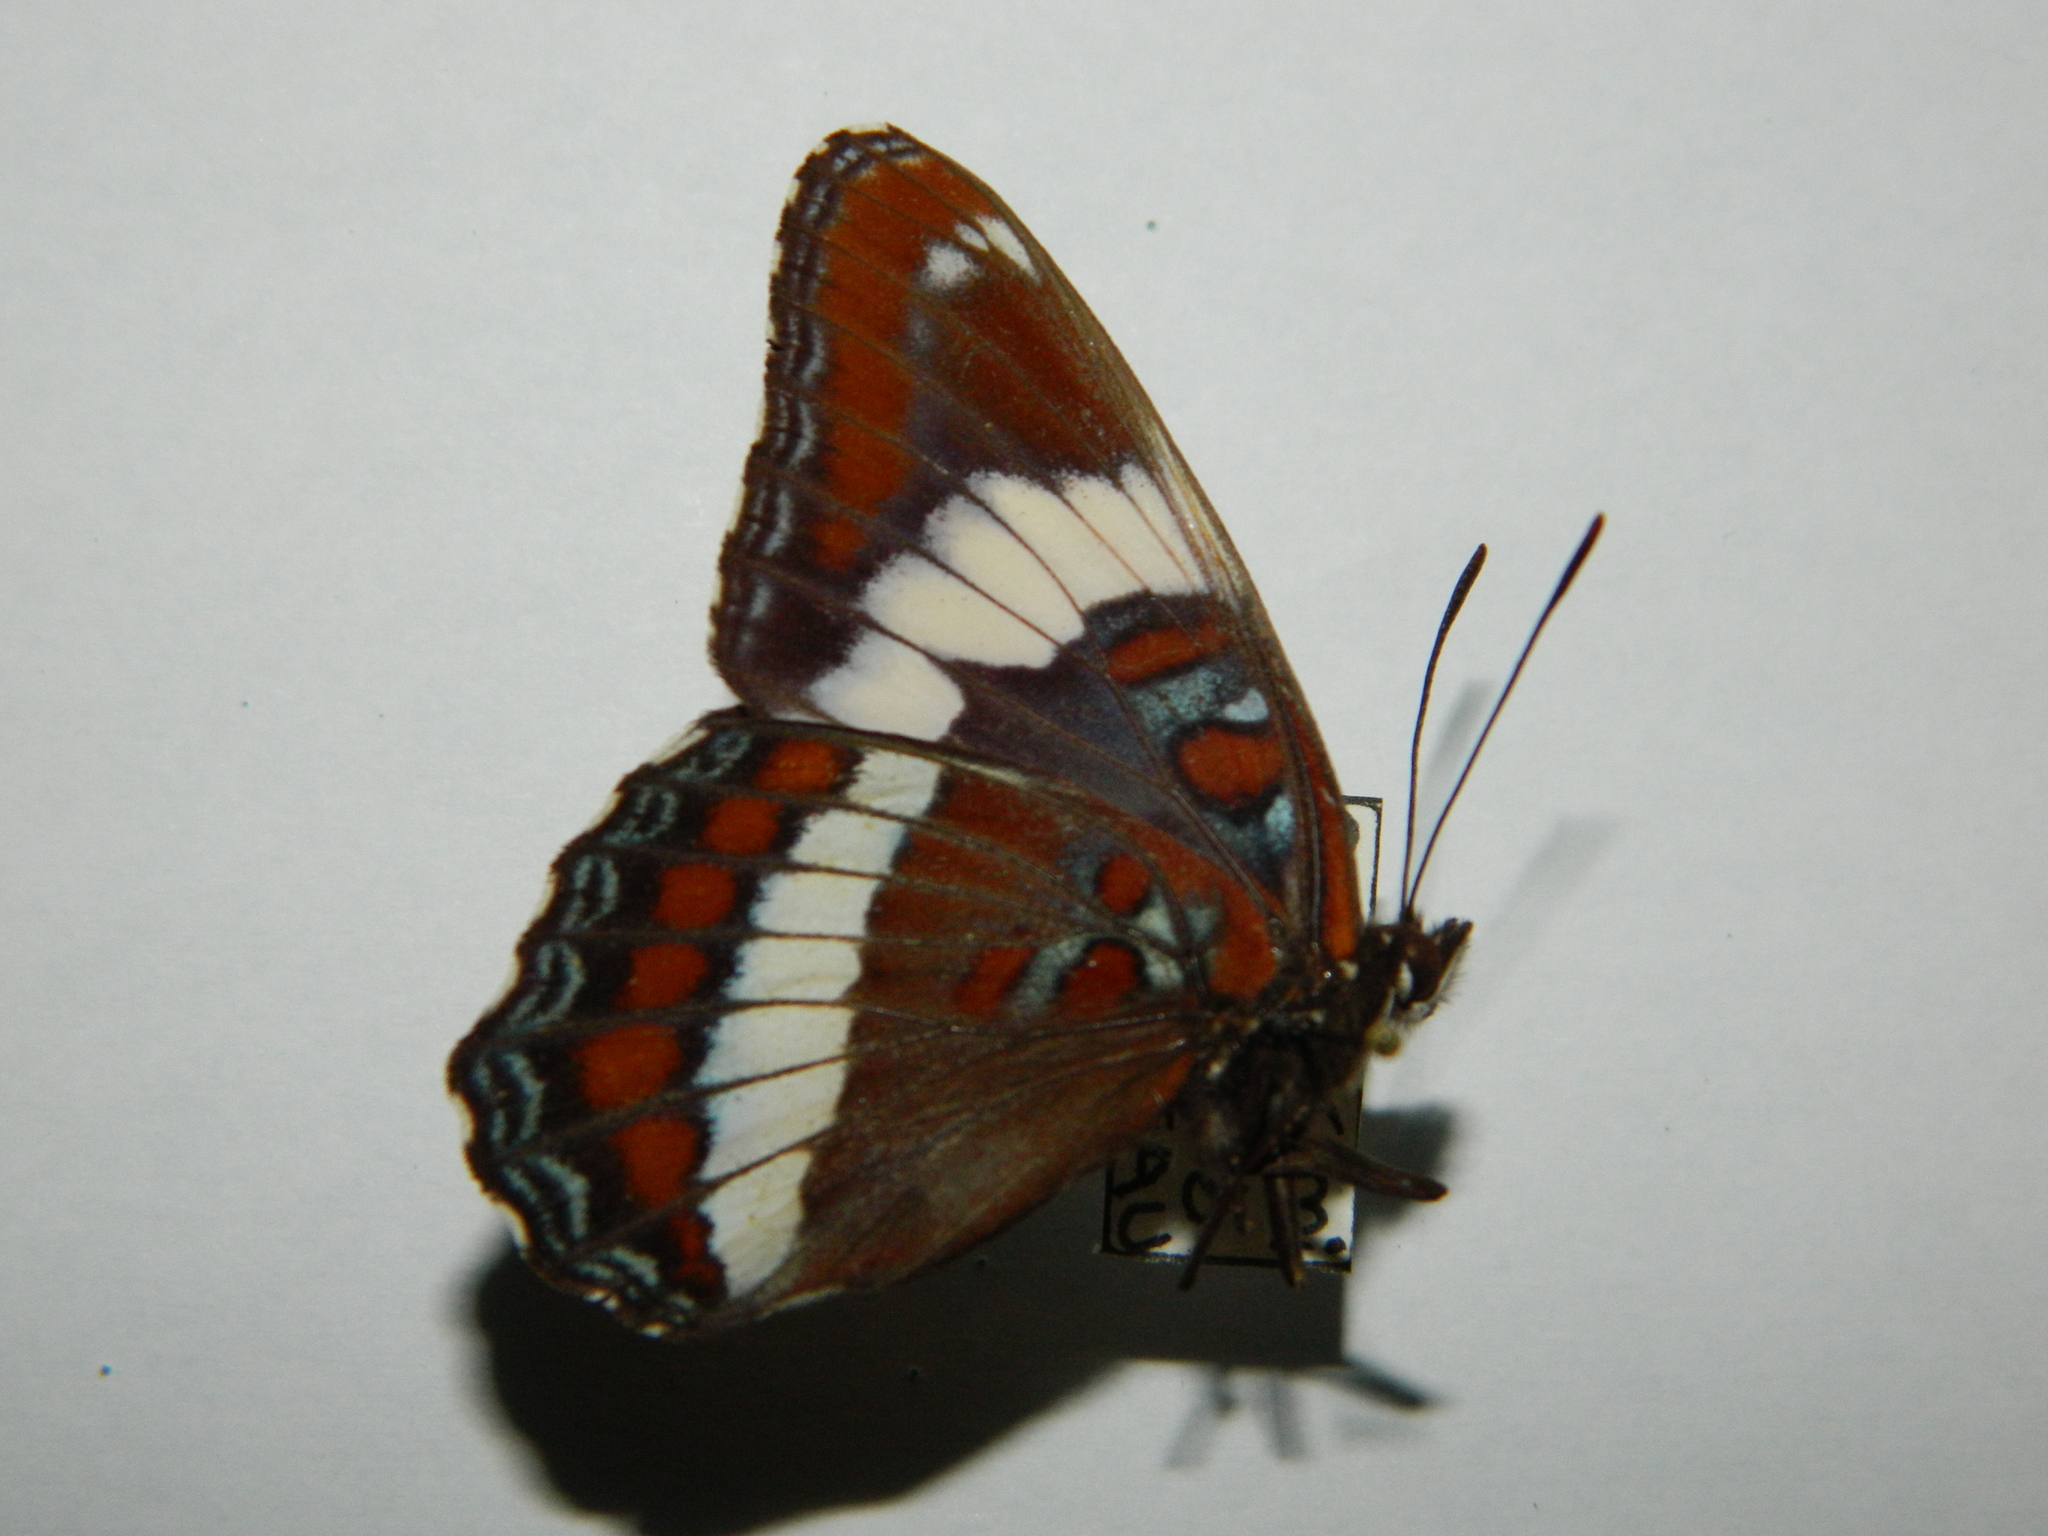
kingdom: Animalia
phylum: Arthropoda
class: Insecta
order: Lepidoptera
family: Nymphalidae
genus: Limenitis
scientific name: Limenitis arthemis
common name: Red-spotted admiral
